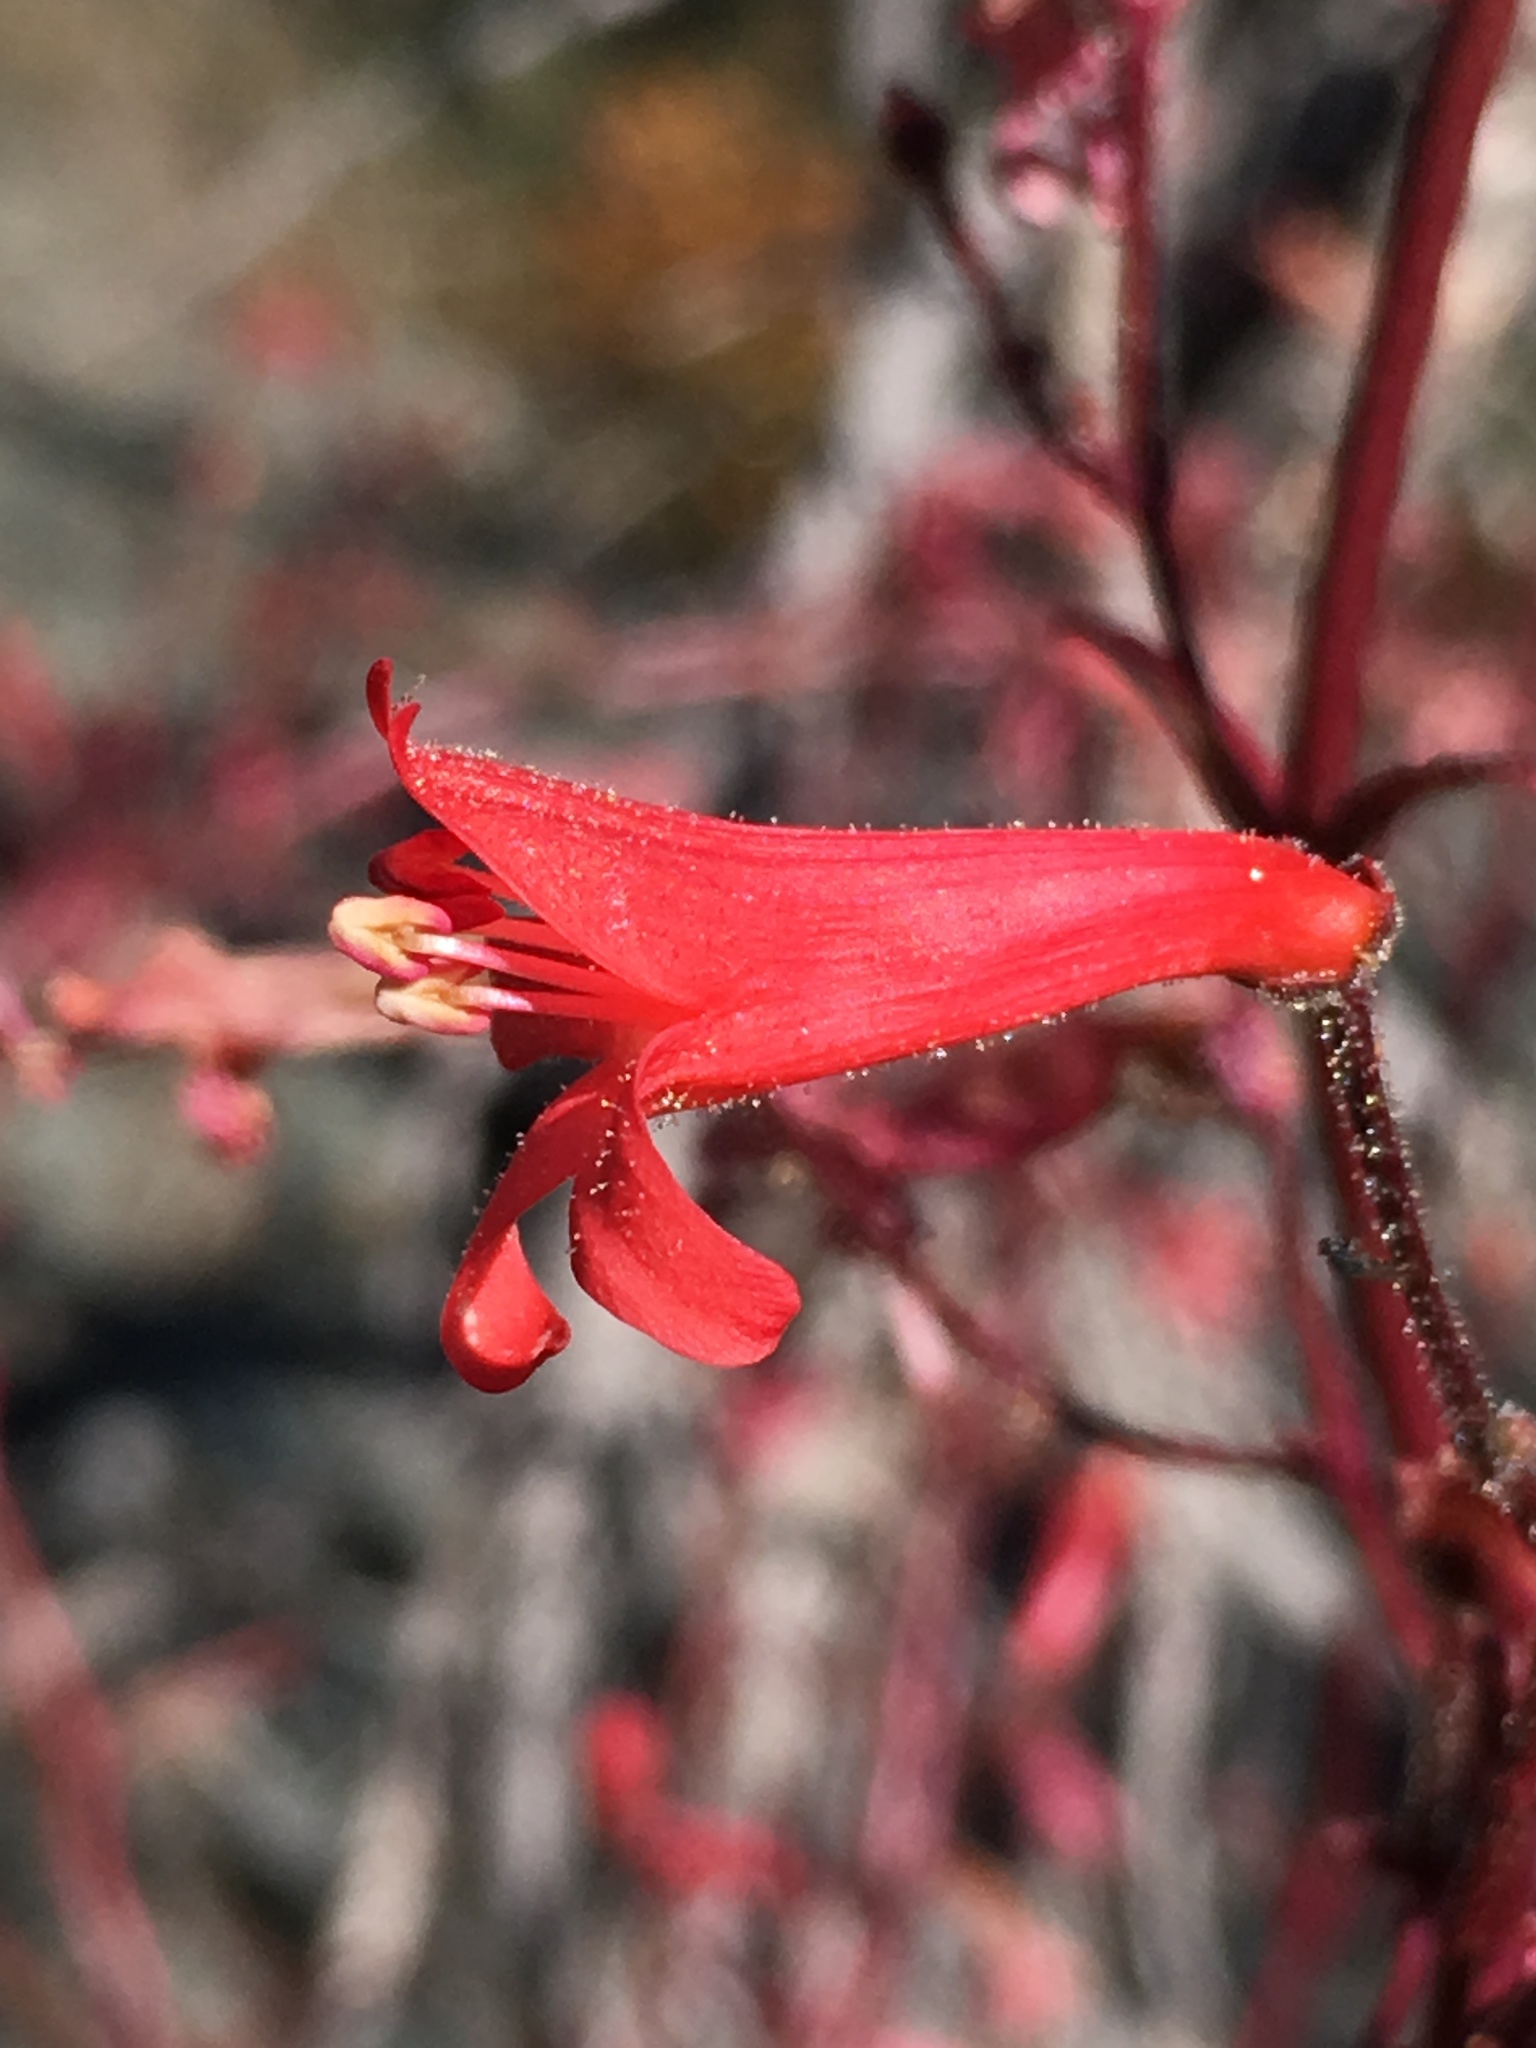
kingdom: Plantae
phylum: Tracheophyta
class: Magnoliopsida
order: Lamiales
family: Plantaginaceae
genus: Penstemon
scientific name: Penstemon rostriflorus
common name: Bridges's penstemon
